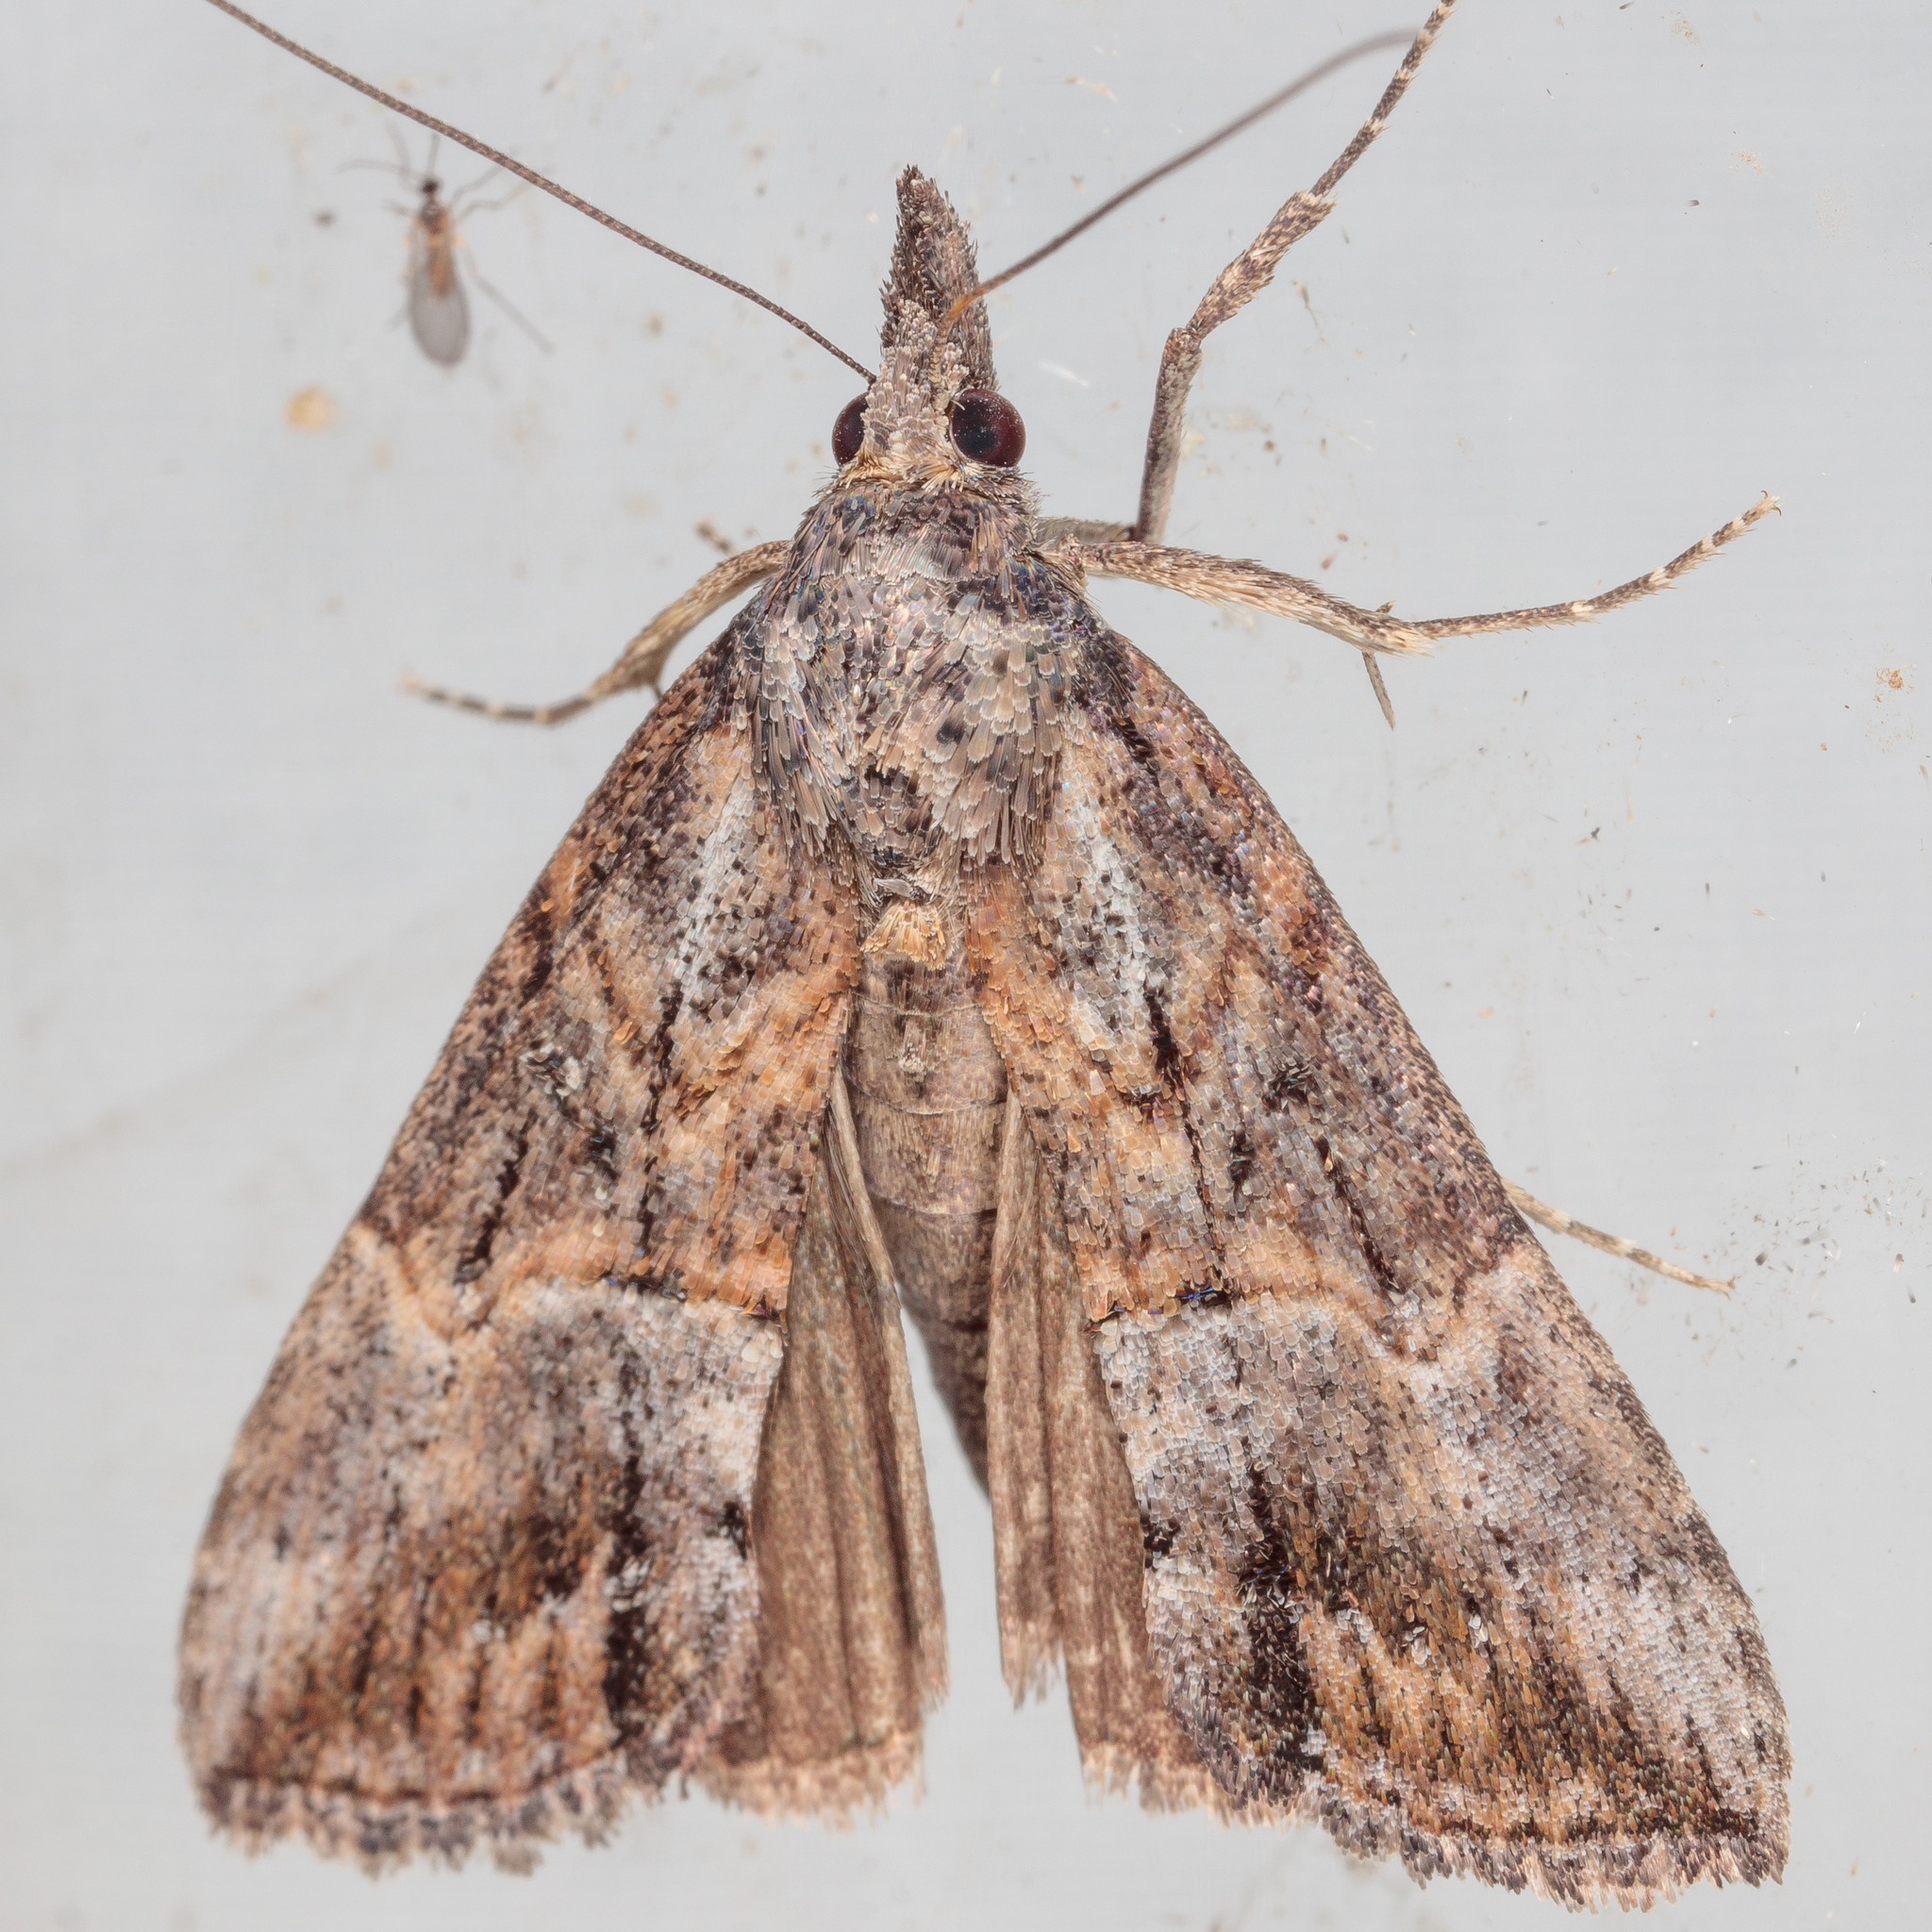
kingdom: Animalia
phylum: Arthropoda
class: Insecta
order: Lepidoptera
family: Erebidae
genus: Hypena
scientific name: Hypena scabra
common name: Green cloverworm
